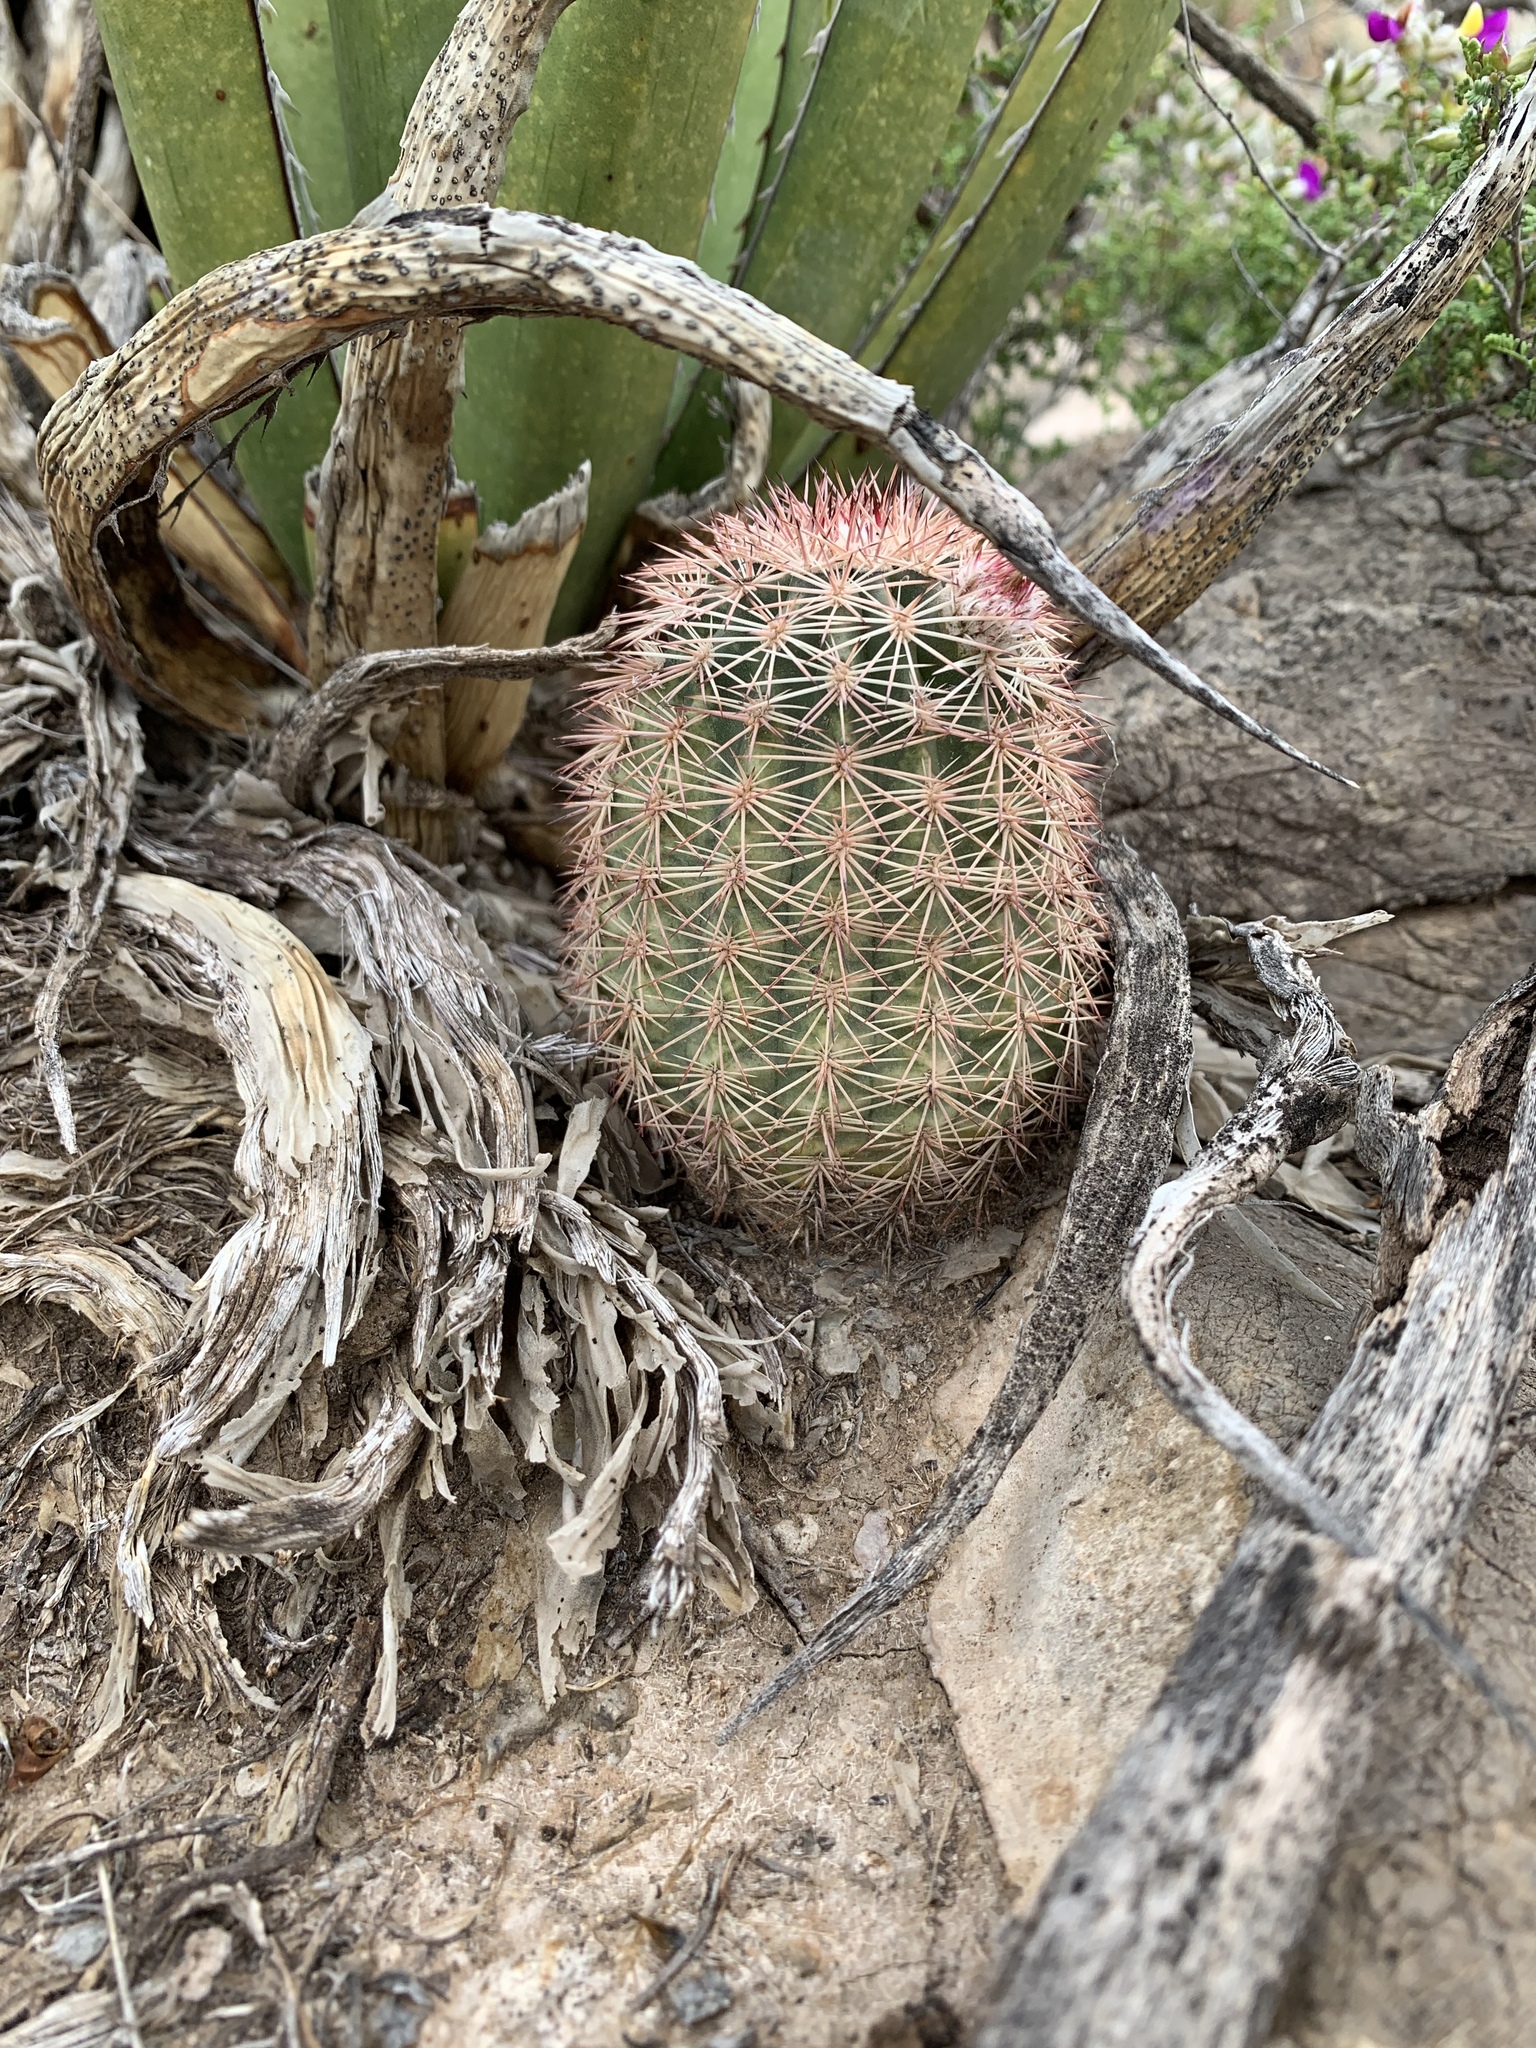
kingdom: Plantae
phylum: Tracheophyta
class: Magnoliopsida
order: Caryophyllales
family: Cactaceae
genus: Echinocereus
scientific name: Echinocereus dasyacanthus
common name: Spiny hedgehog cactus
